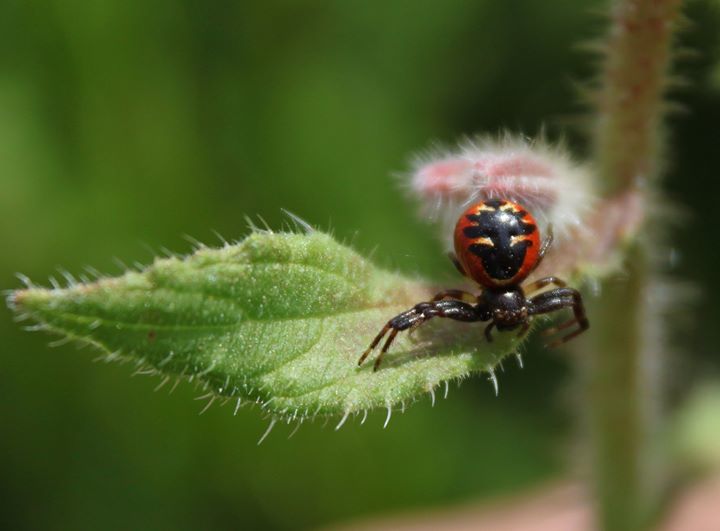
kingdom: Animalia
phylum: Arthropoda
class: Arachnida
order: Araneae
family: Thomisidae
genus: Synema
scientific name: Synema globosum
